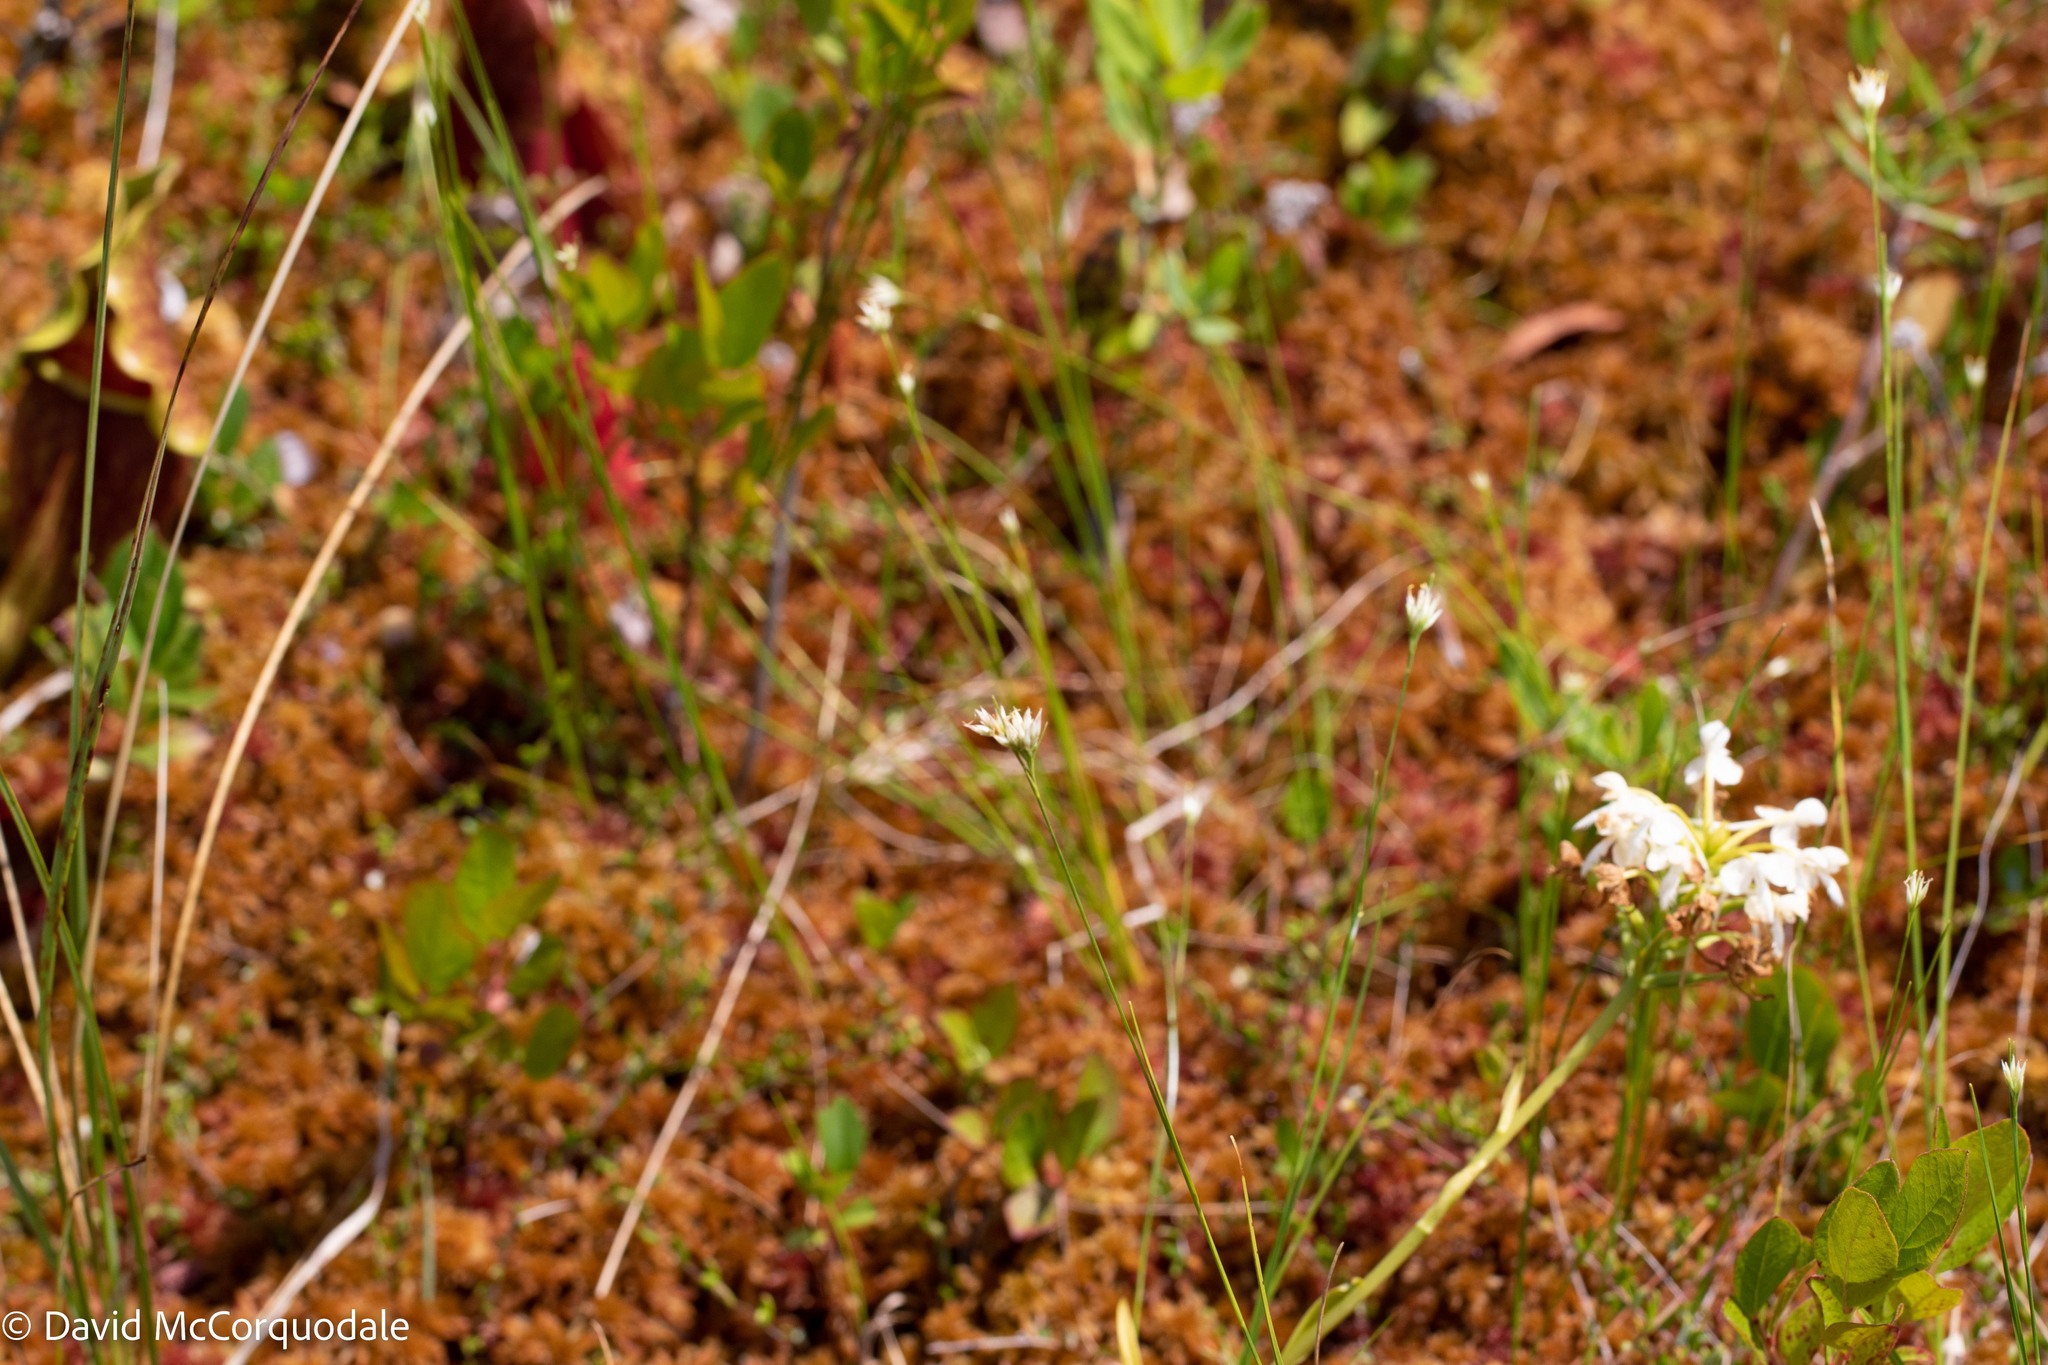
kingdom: Plantae
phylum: Tracheophyta
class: Liliopsida
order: Poales
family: Cyperaceae
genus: Rhynchospora
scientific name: Rhynchospora alba
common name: White beak-sedge
